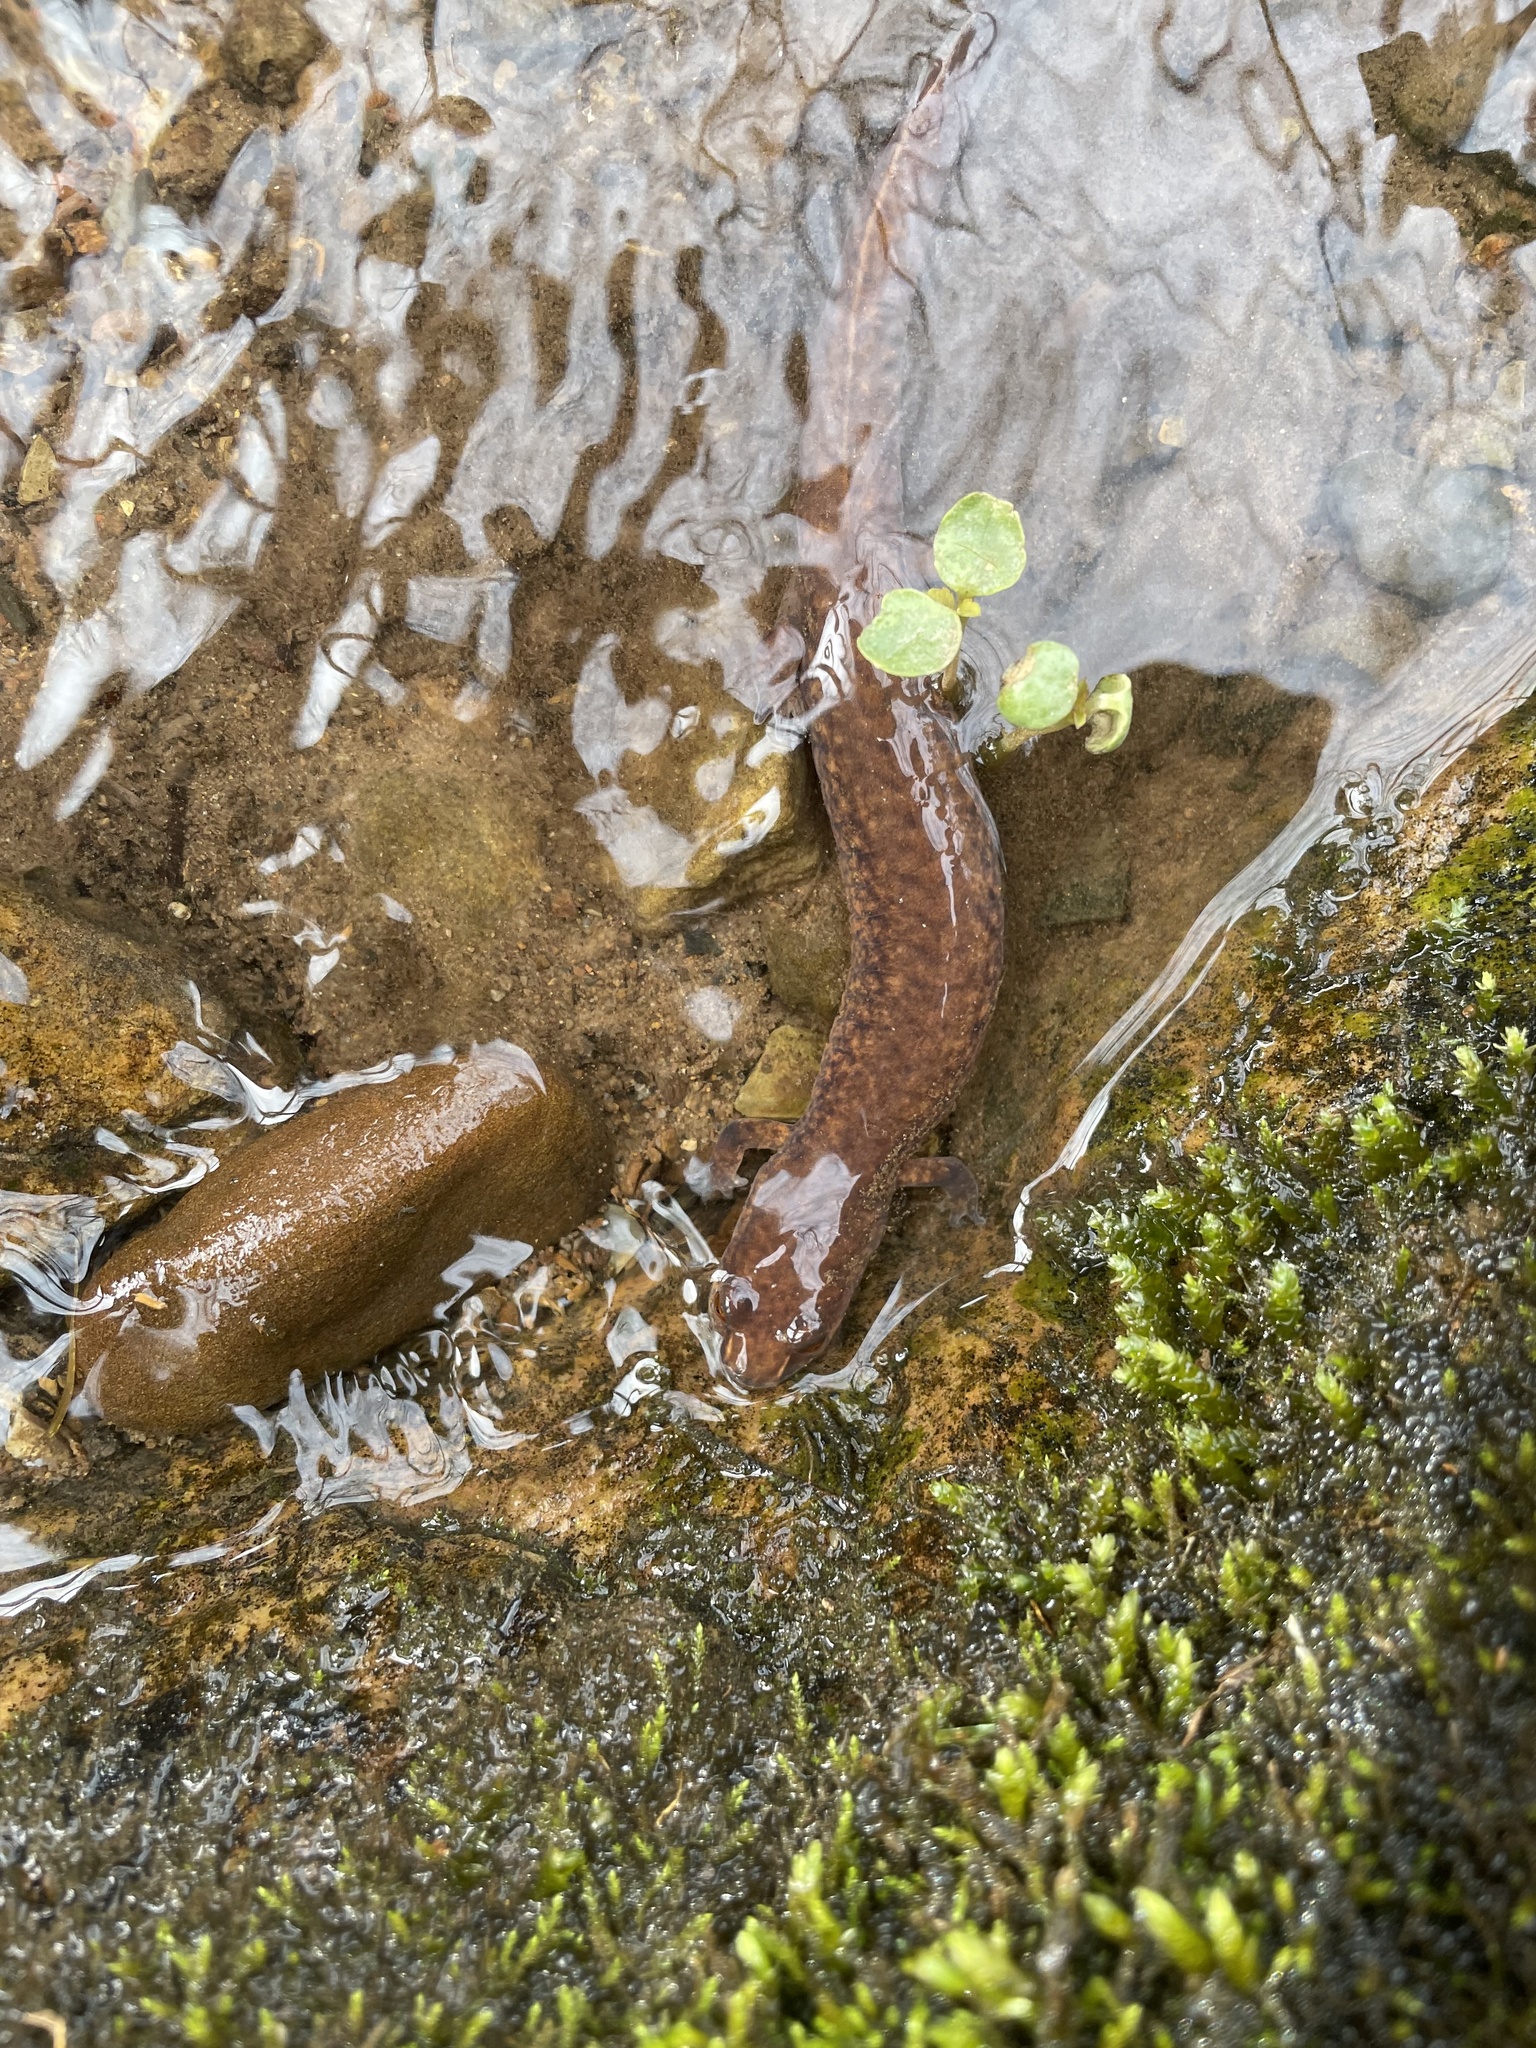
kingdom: Animalia
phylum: Chordata
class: Amphibia
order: Caudata
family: Plethodontidae
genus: Gyrinophilus
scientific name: Gyrinophilus porphyriticus
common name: Spring salamander
